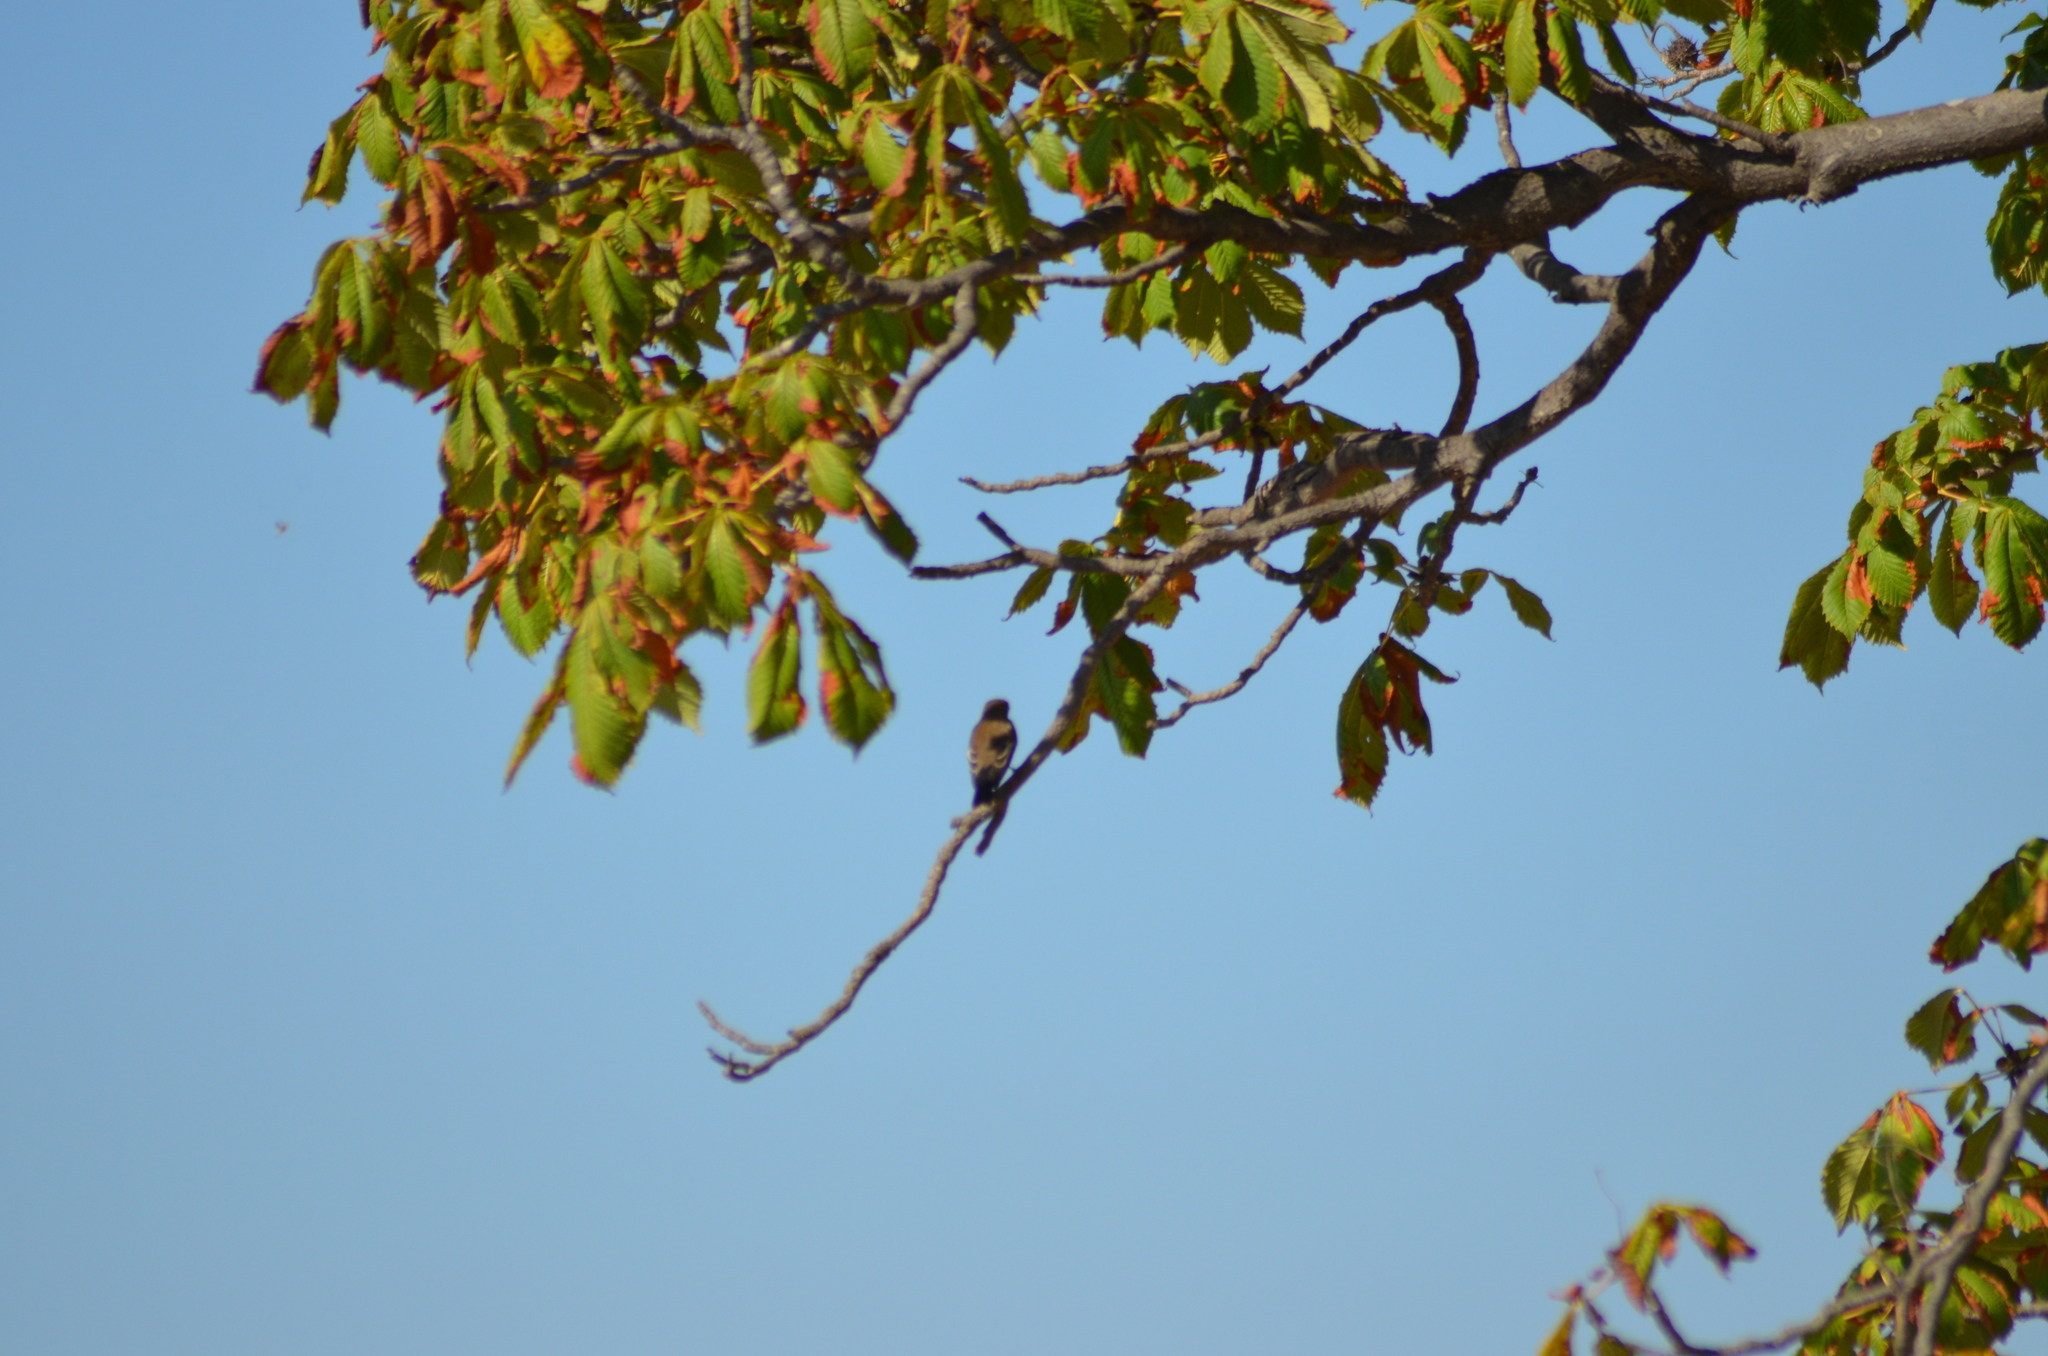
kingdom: Animalia
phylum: Chordata
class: Aves
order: Passeriformes
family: Muscicapidae
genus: Ficedula
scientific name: Ficedula hypoleuca
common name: European pied flycatcher
